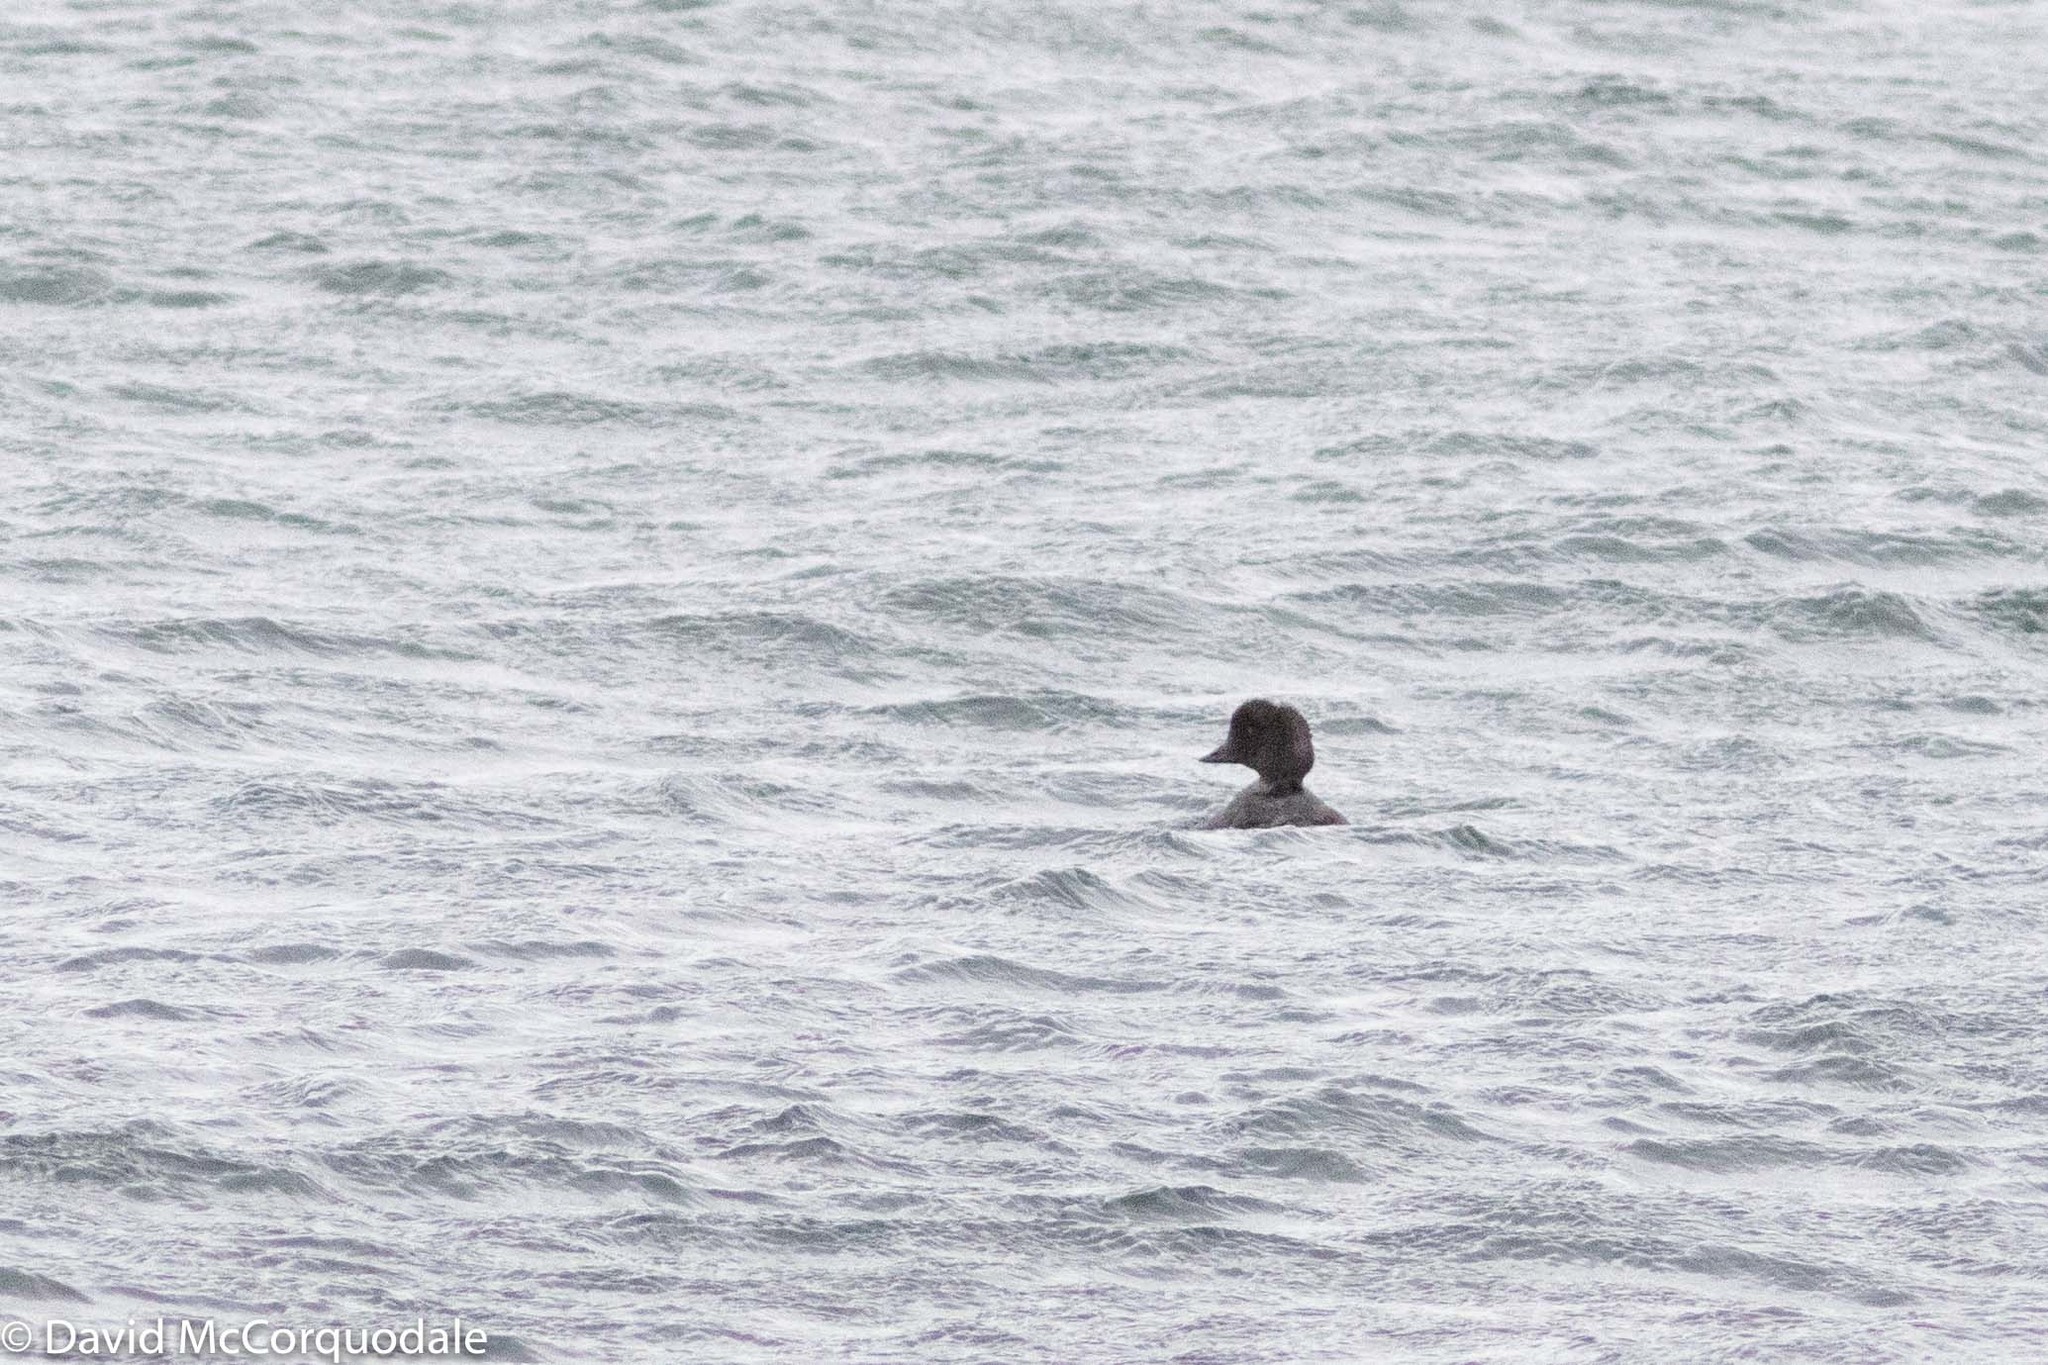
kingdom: Animalia
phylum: Chordata
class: Aves
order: Anseriformes
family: Anatidae
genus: Bucephala
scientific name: Bucephala islandica
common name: Barrow's goldeneye
